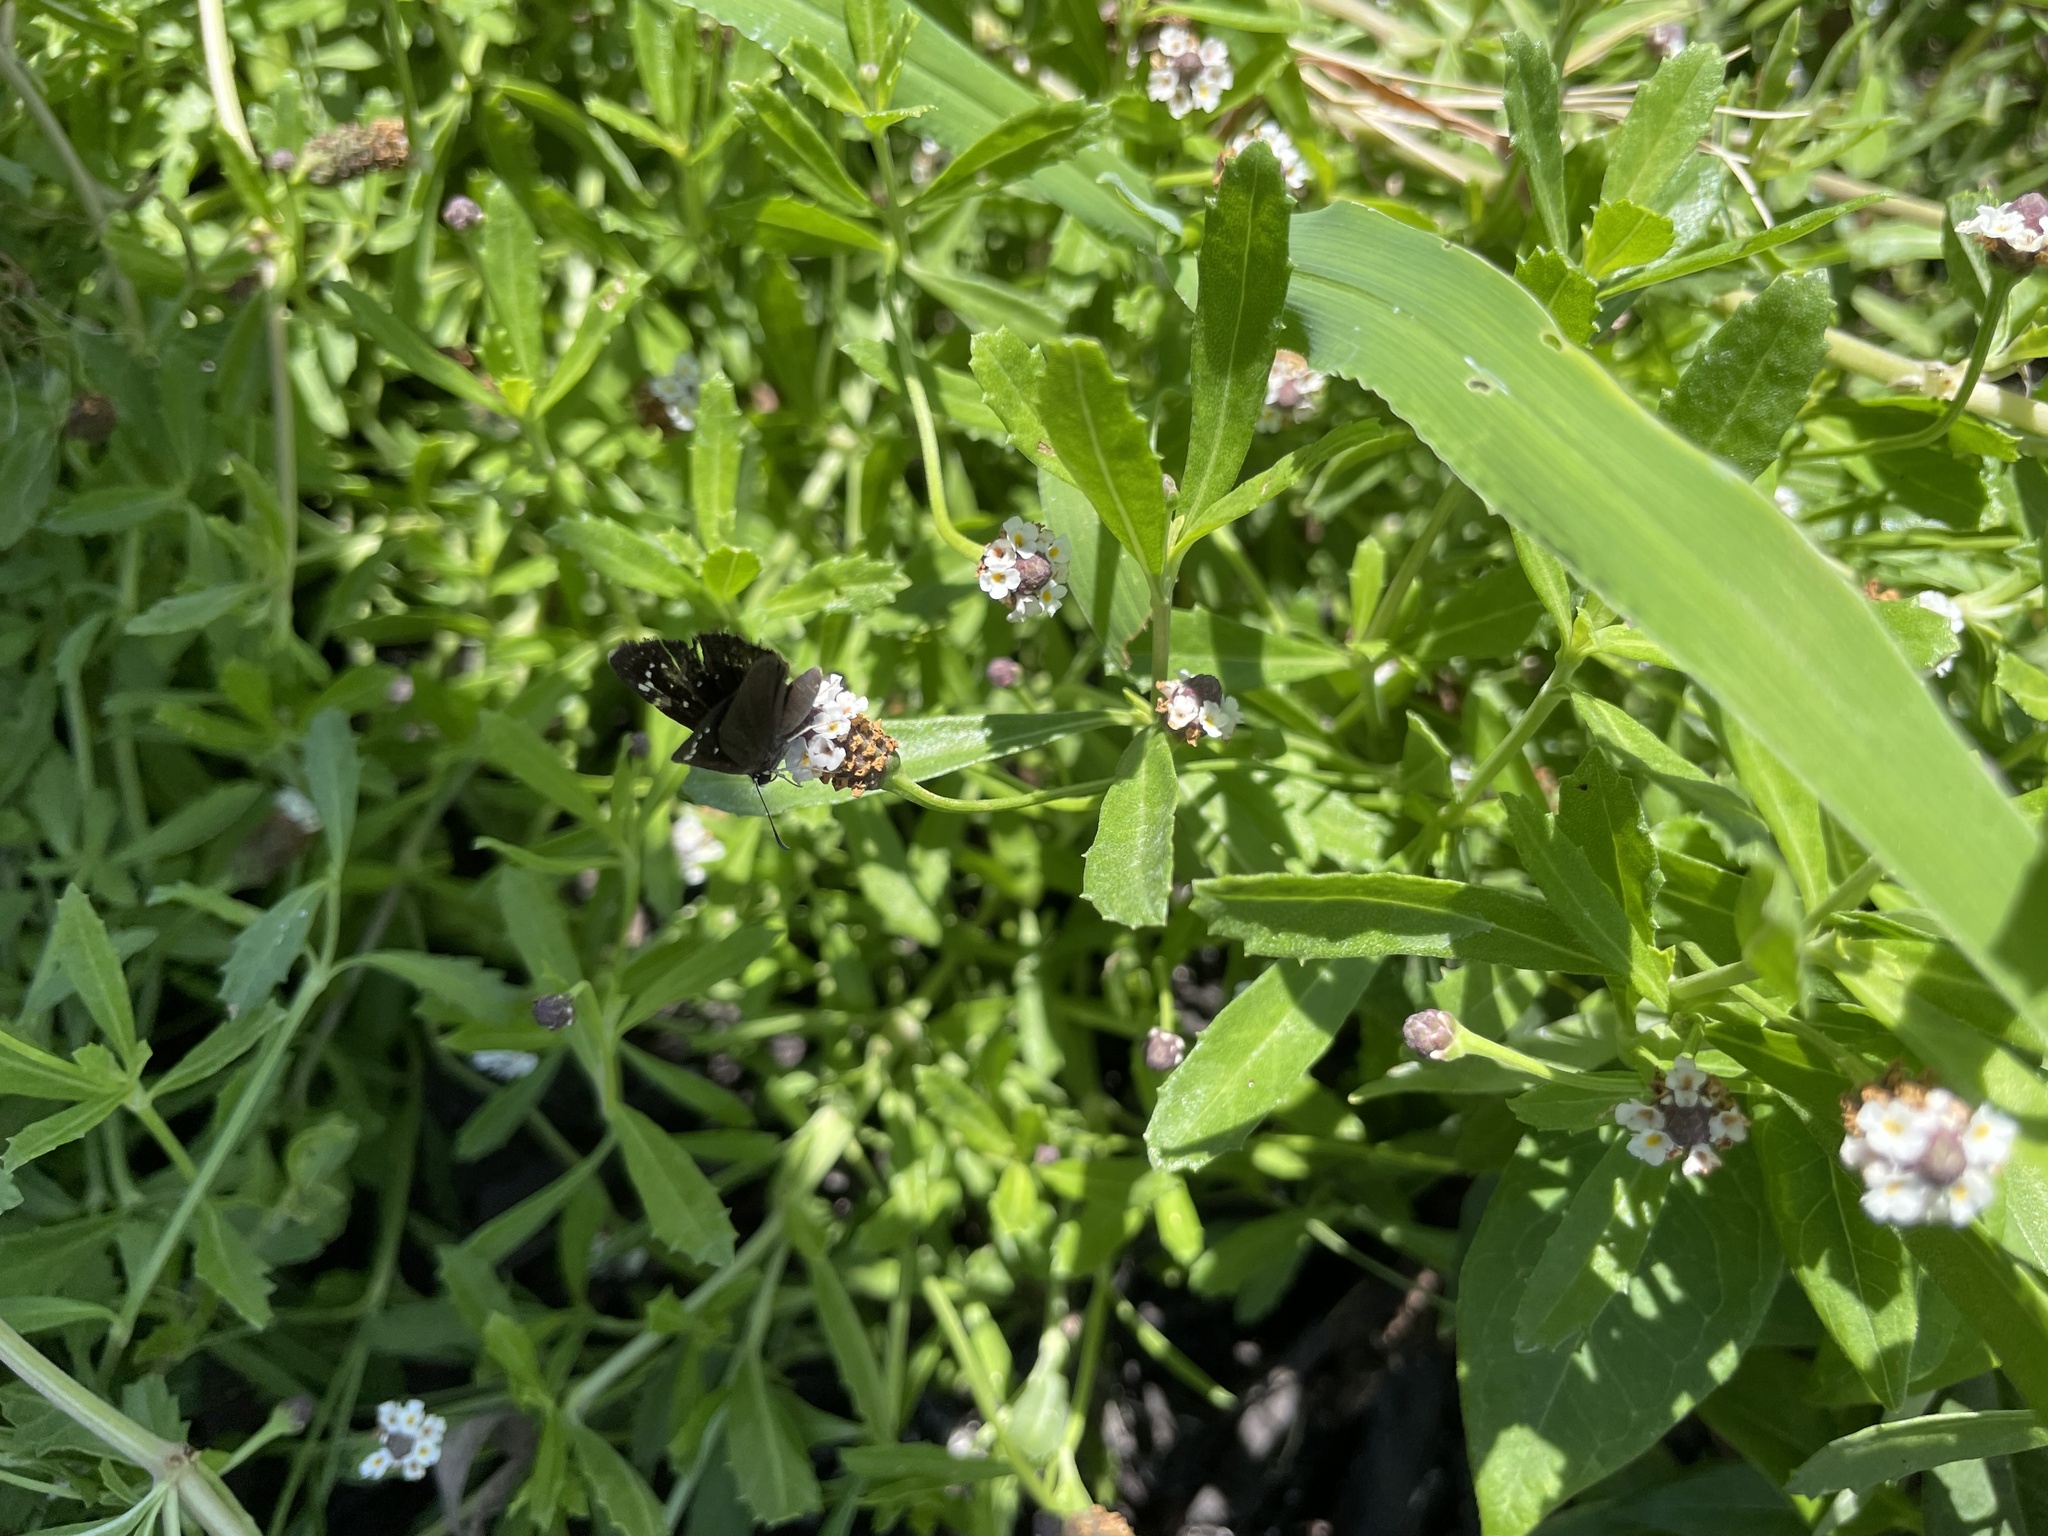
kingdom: Animalia
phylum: Arthropoda
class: Insecta
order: Lepidoptera
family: Hesperiidae
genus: Pholisora
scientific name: Pholisora catullus
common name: Common sootywing
